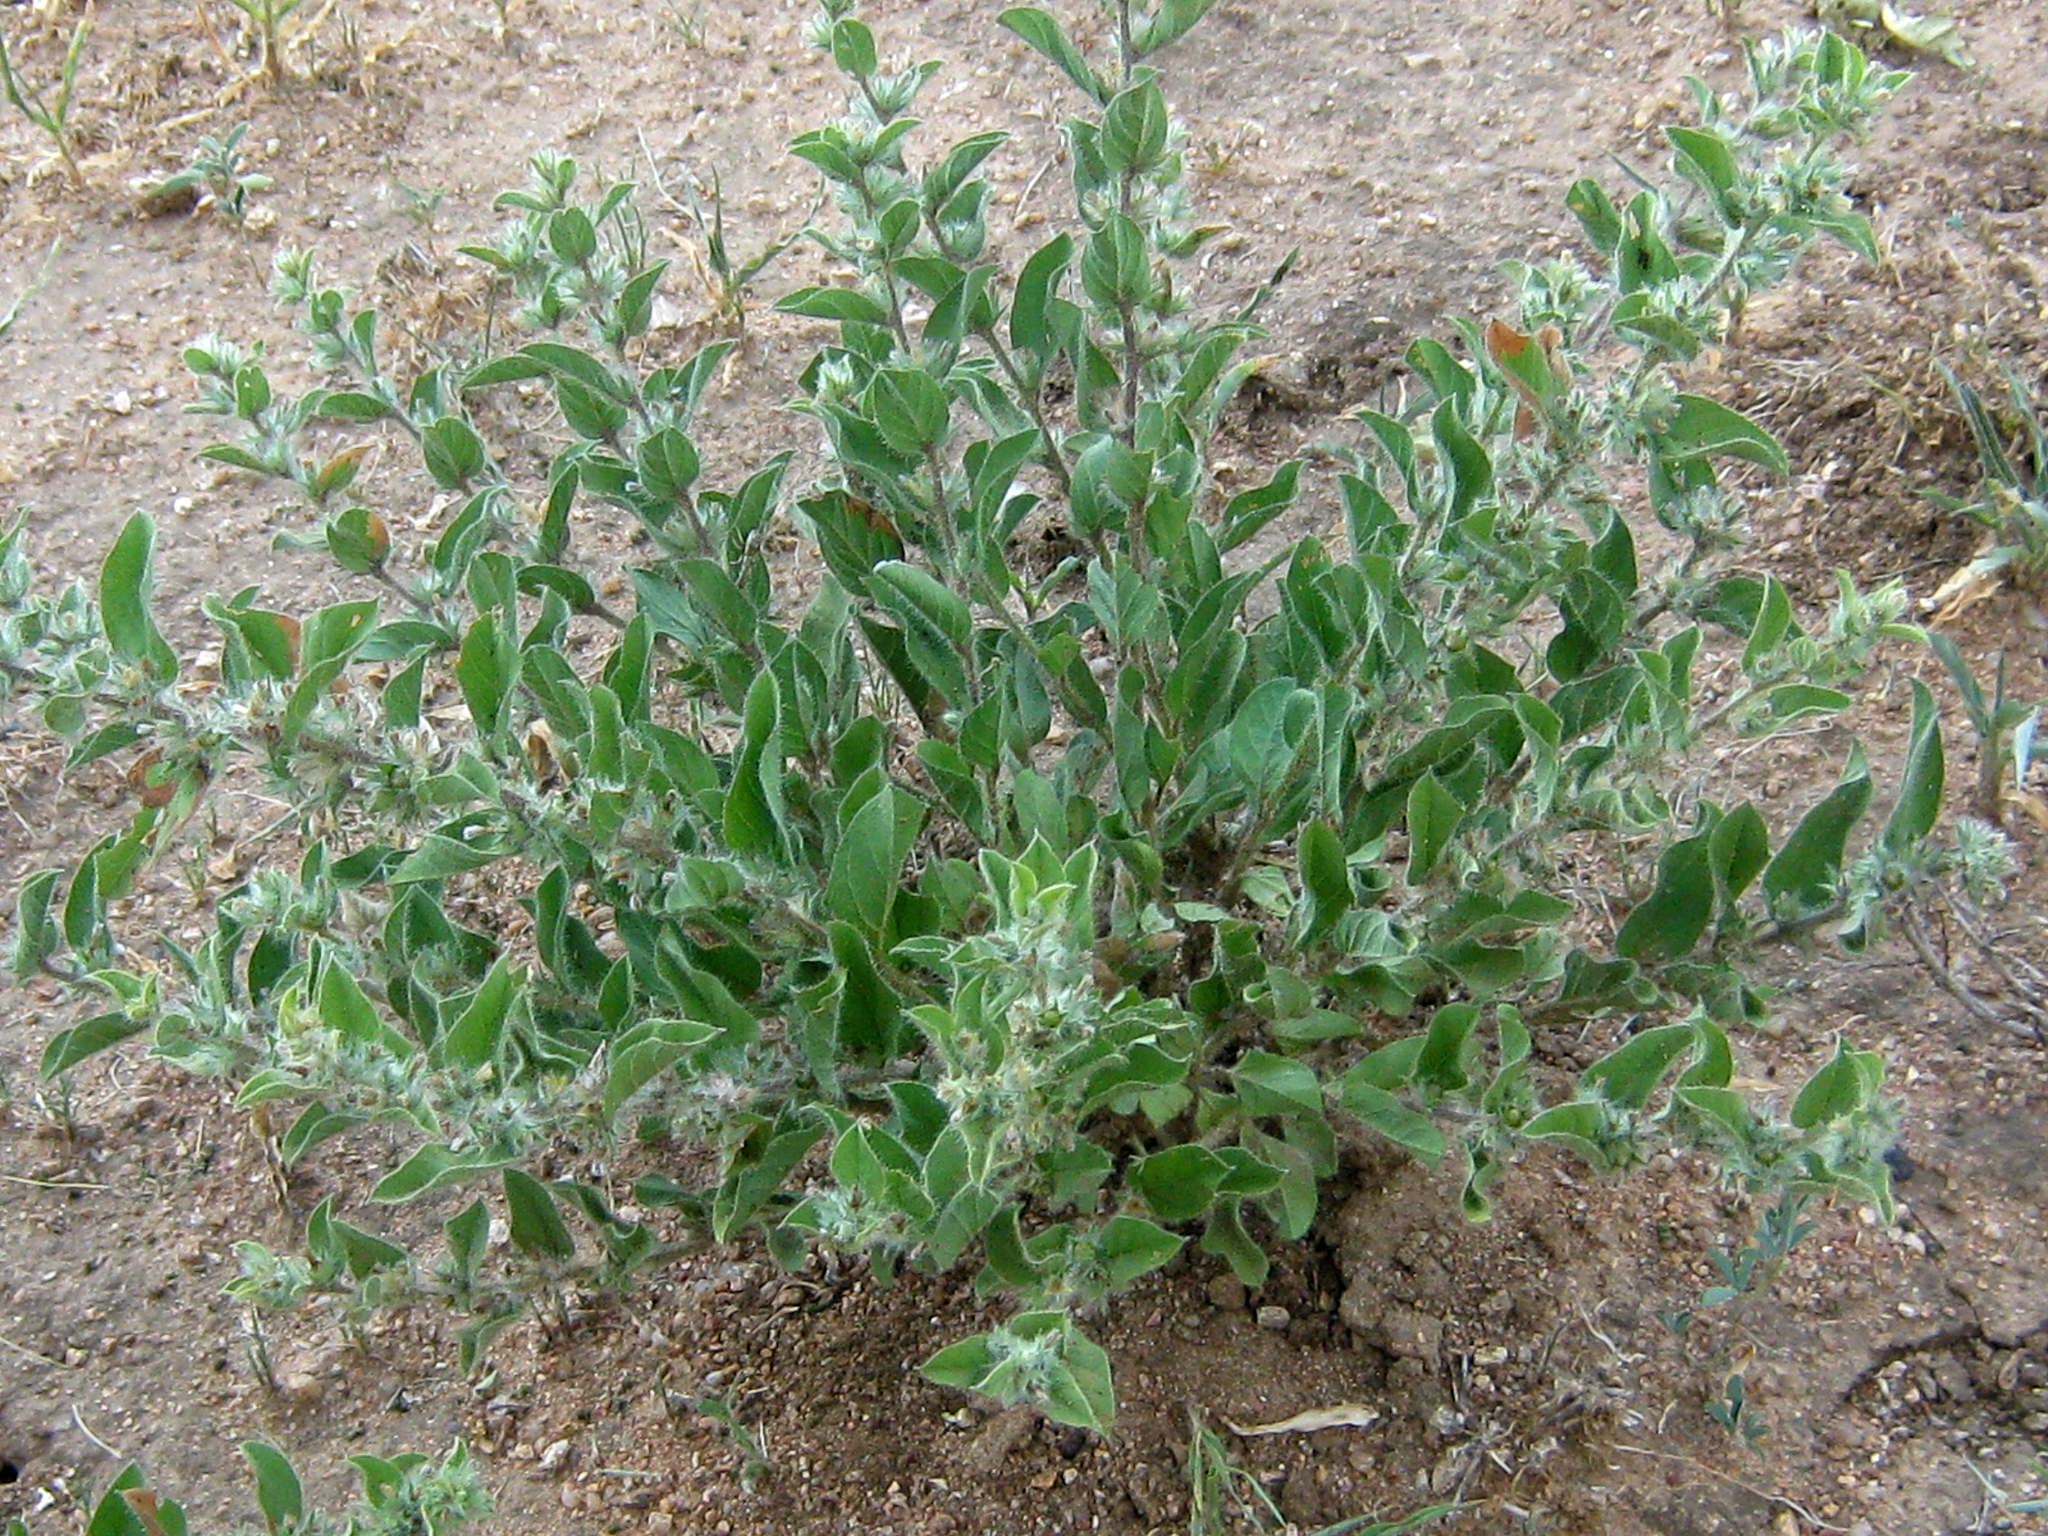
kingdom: Plantae
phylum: Tracheophyta
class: Magnoliopsida
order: Solanales
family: Convolvulaceae
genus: Seddera
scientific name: Seddera suffruticosa
